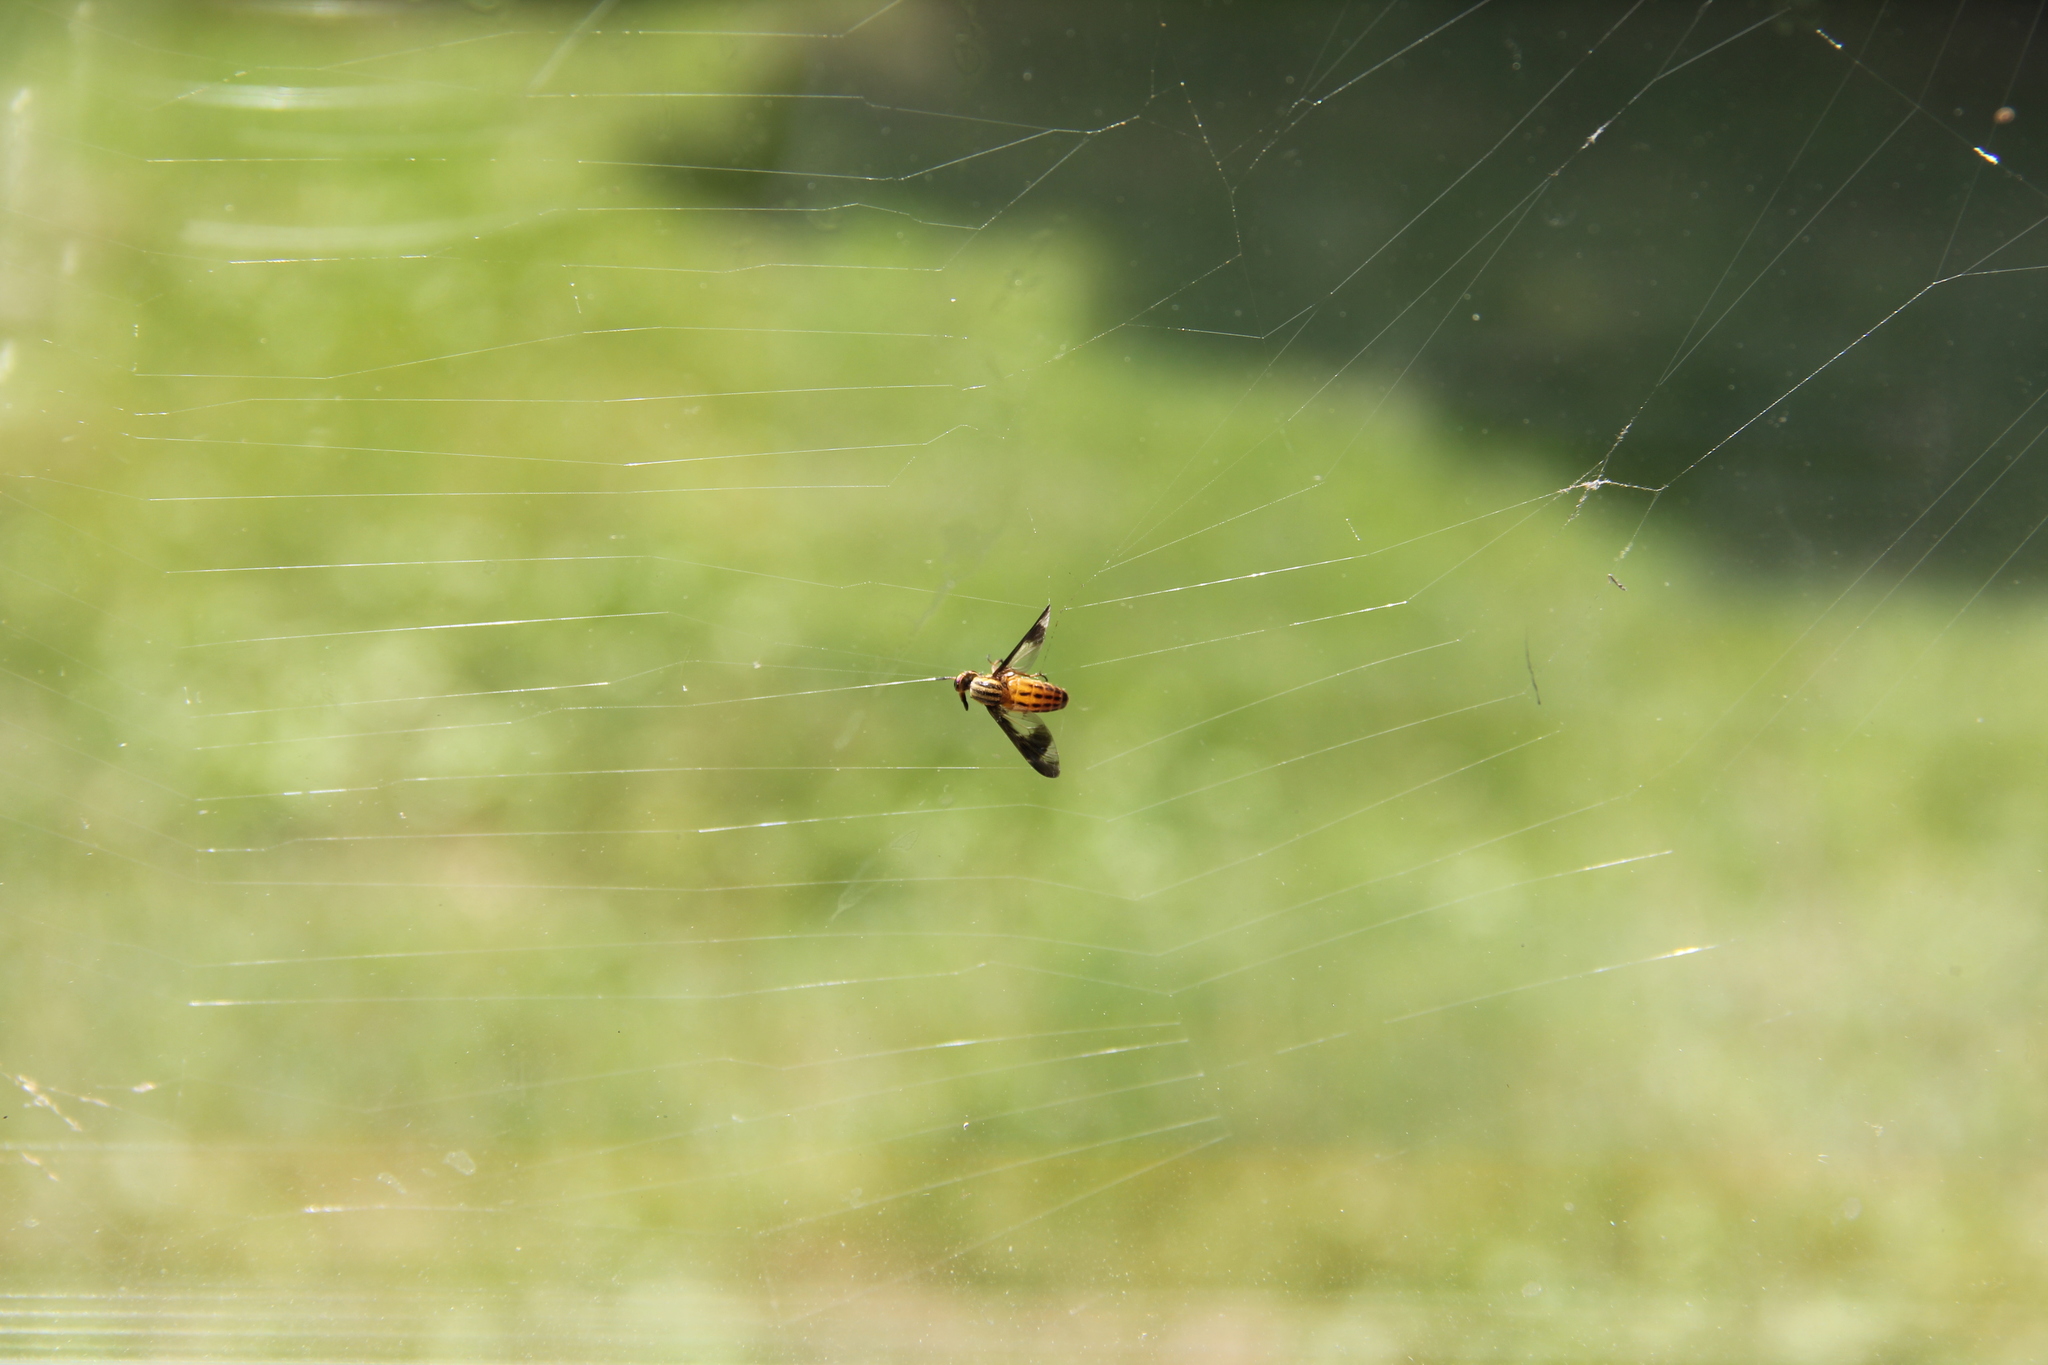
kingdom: Animalia
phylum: Arthropoda
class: Insecta
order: Diptera
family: Tabanidae
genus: Chrysops
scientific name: Chrysops vittatus
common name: Striped deer fly
